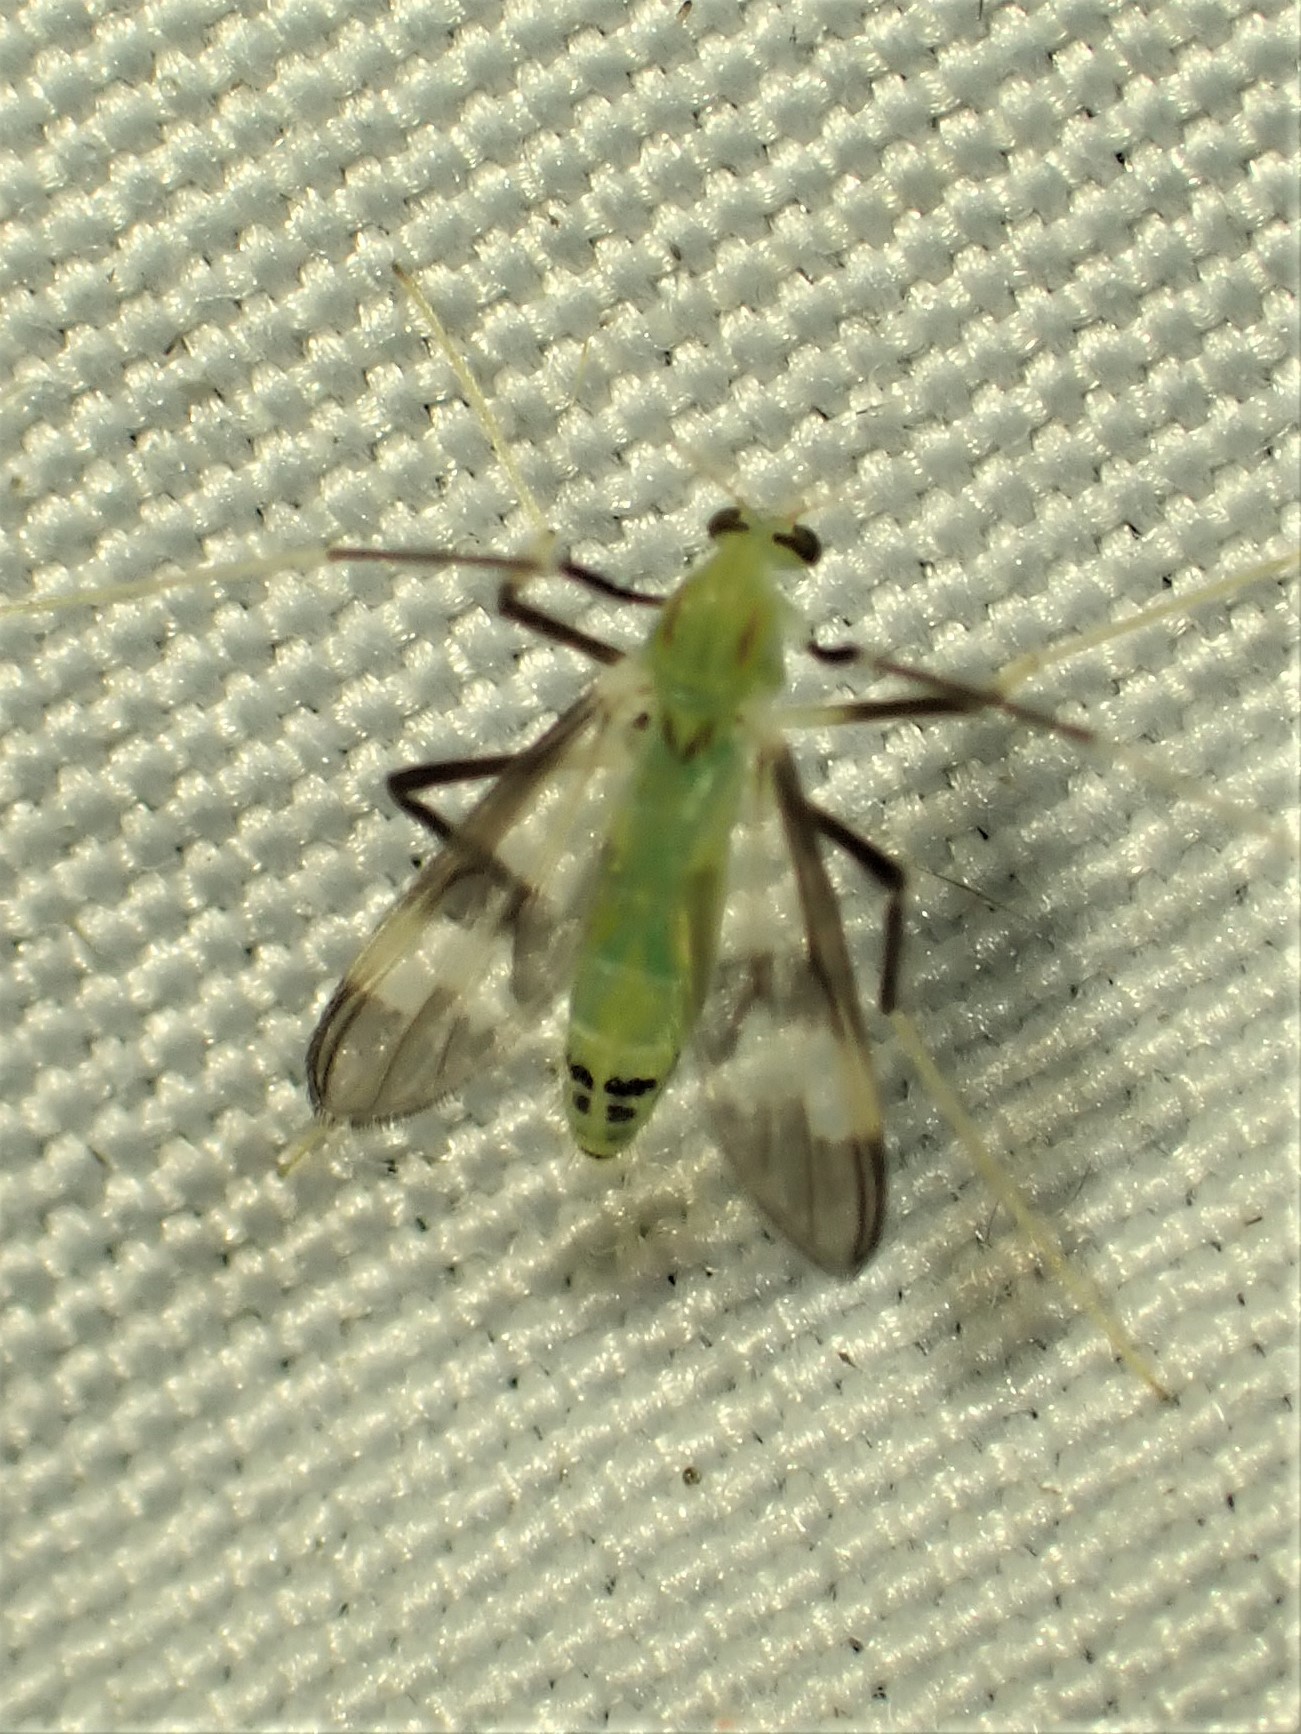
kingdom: Animalia
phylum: Arthropoda
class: Insecta
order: Diptera
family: Chironomidae
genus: Stenochironomus
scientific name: Stenochironomus hilaris
